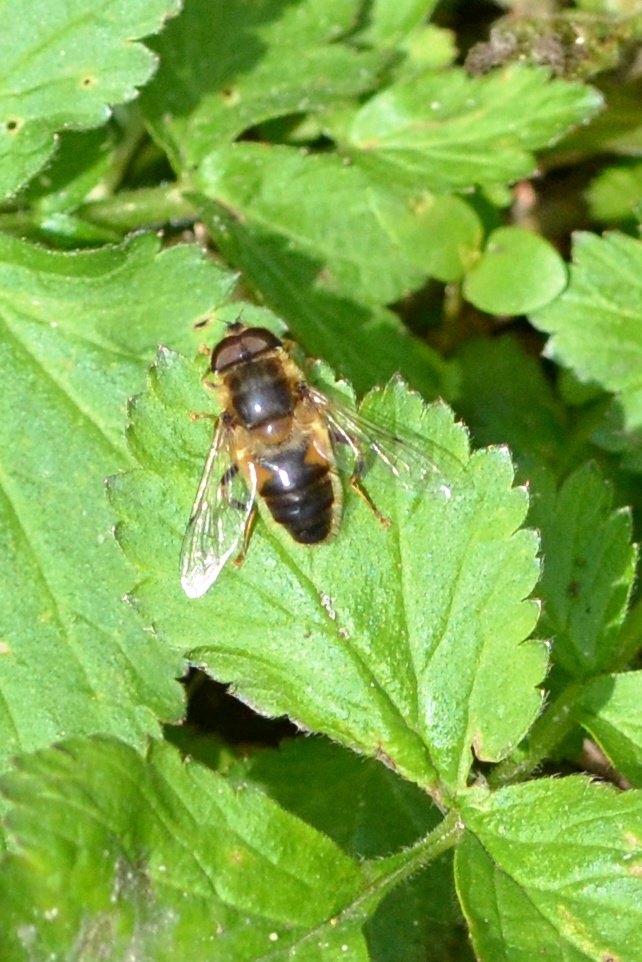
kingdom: Animalia
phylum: Arthropoda
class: Insecta
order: Diptera
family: Syrphidae
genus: Eristalis
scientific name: Eristalis pertinax
